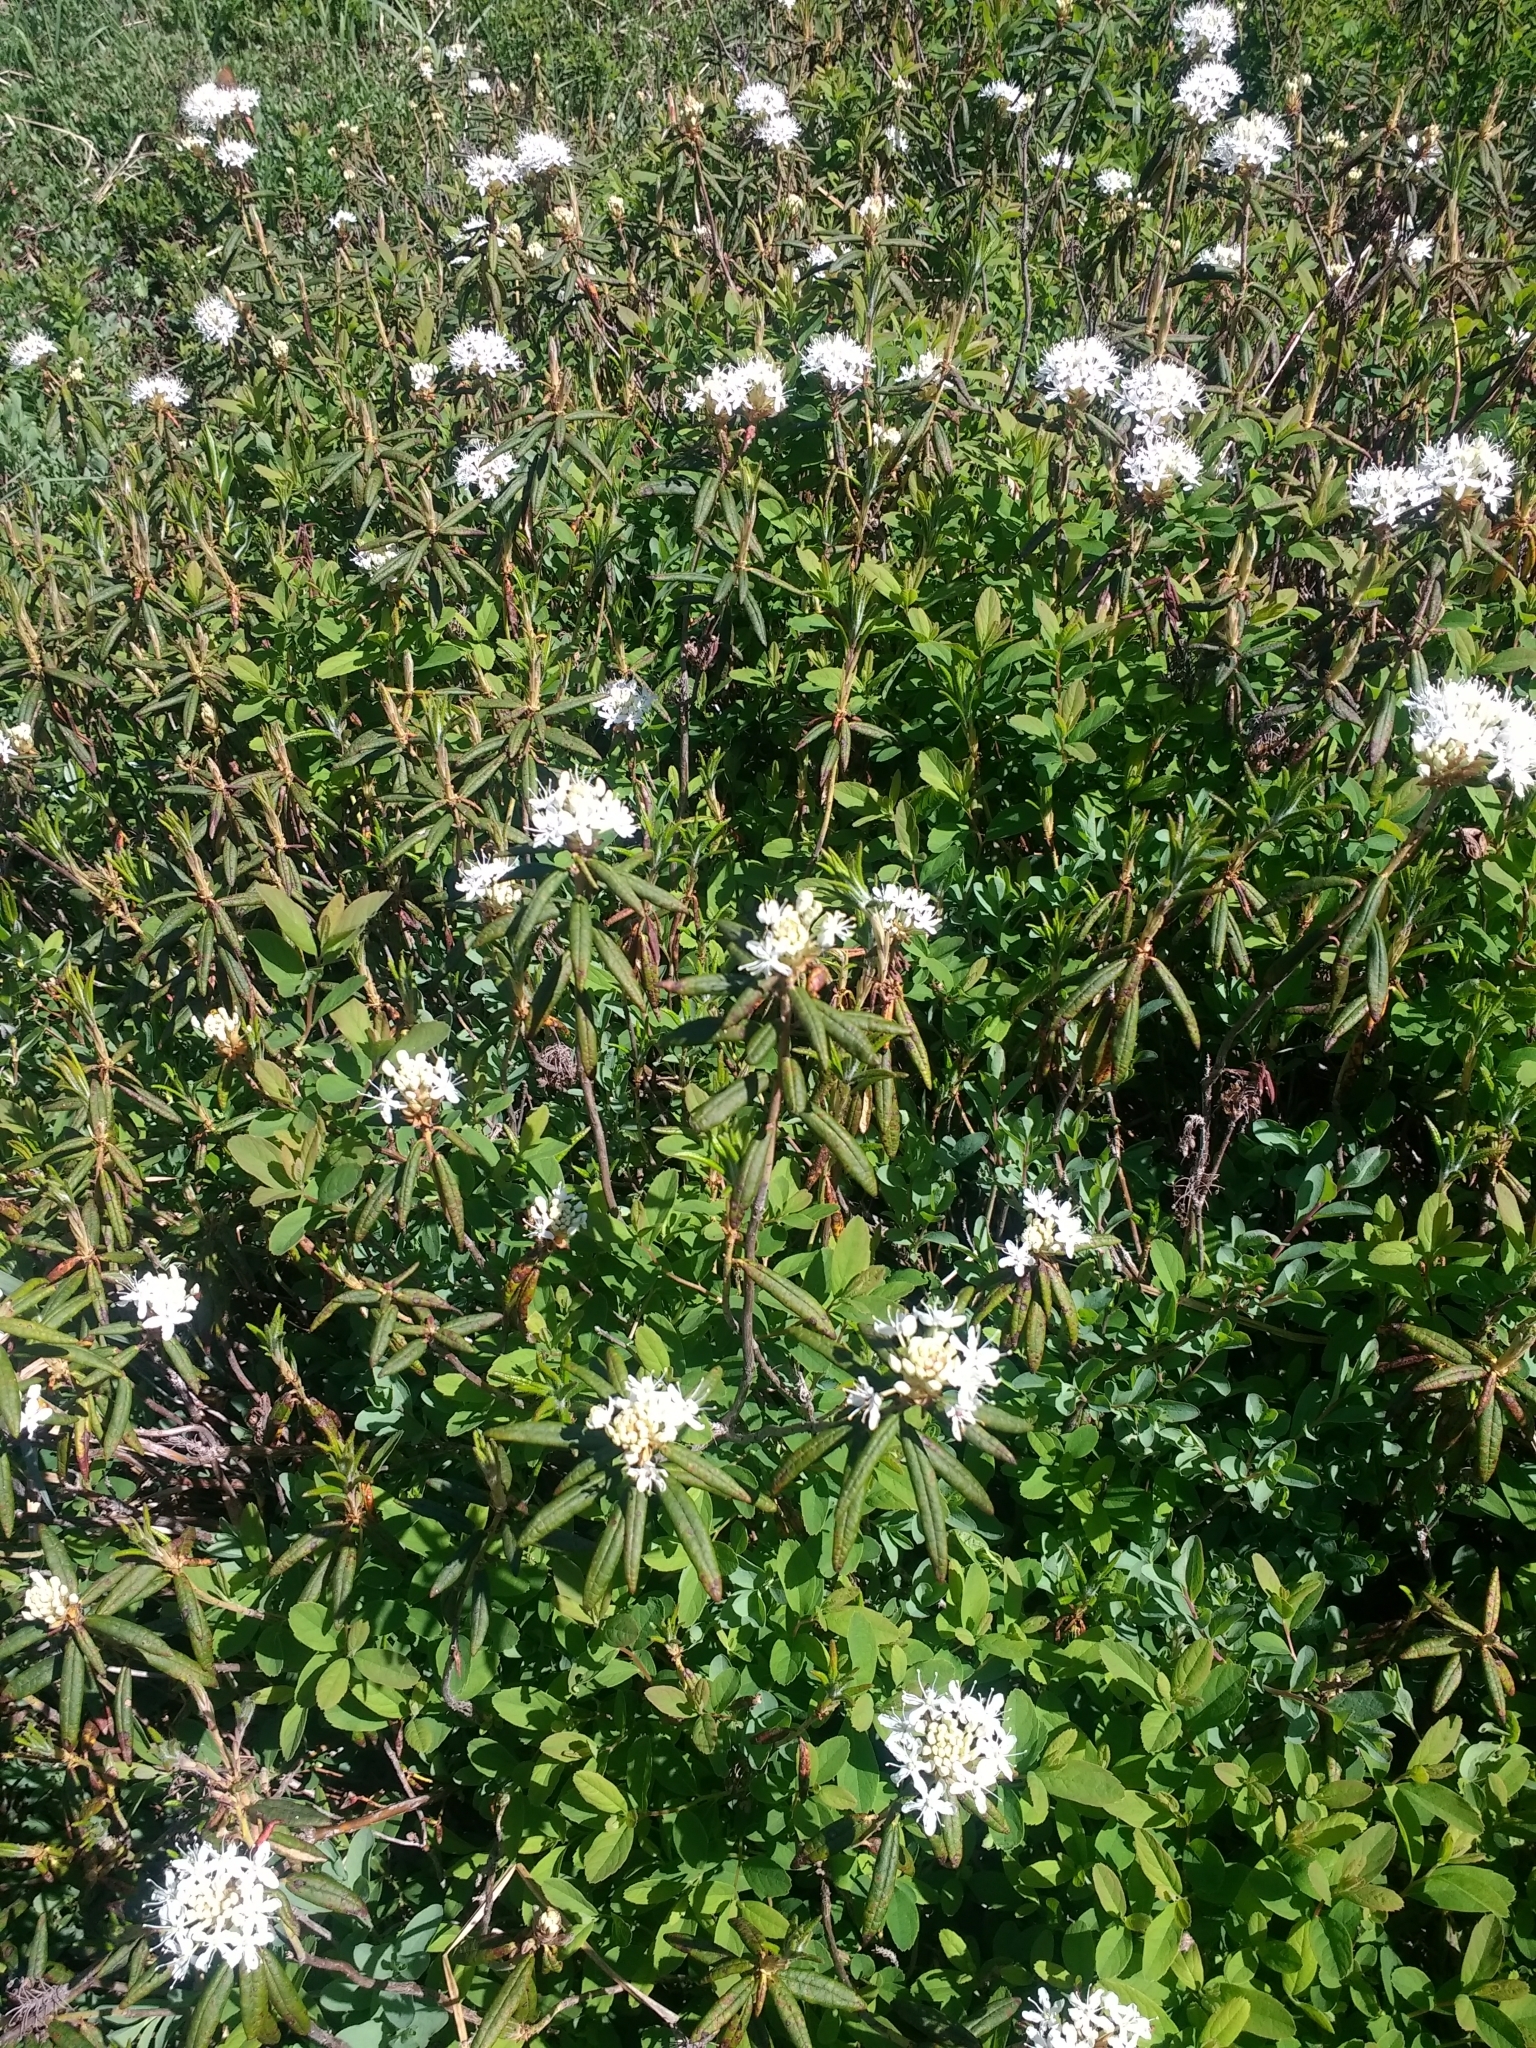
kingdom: Plantae
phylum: Tracheophyta
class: Magnoliopsida
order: Ericales
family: Ericaceae
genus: Rhododendron
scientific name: Rhododendron groenlandicum
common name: Bog labrador tea
